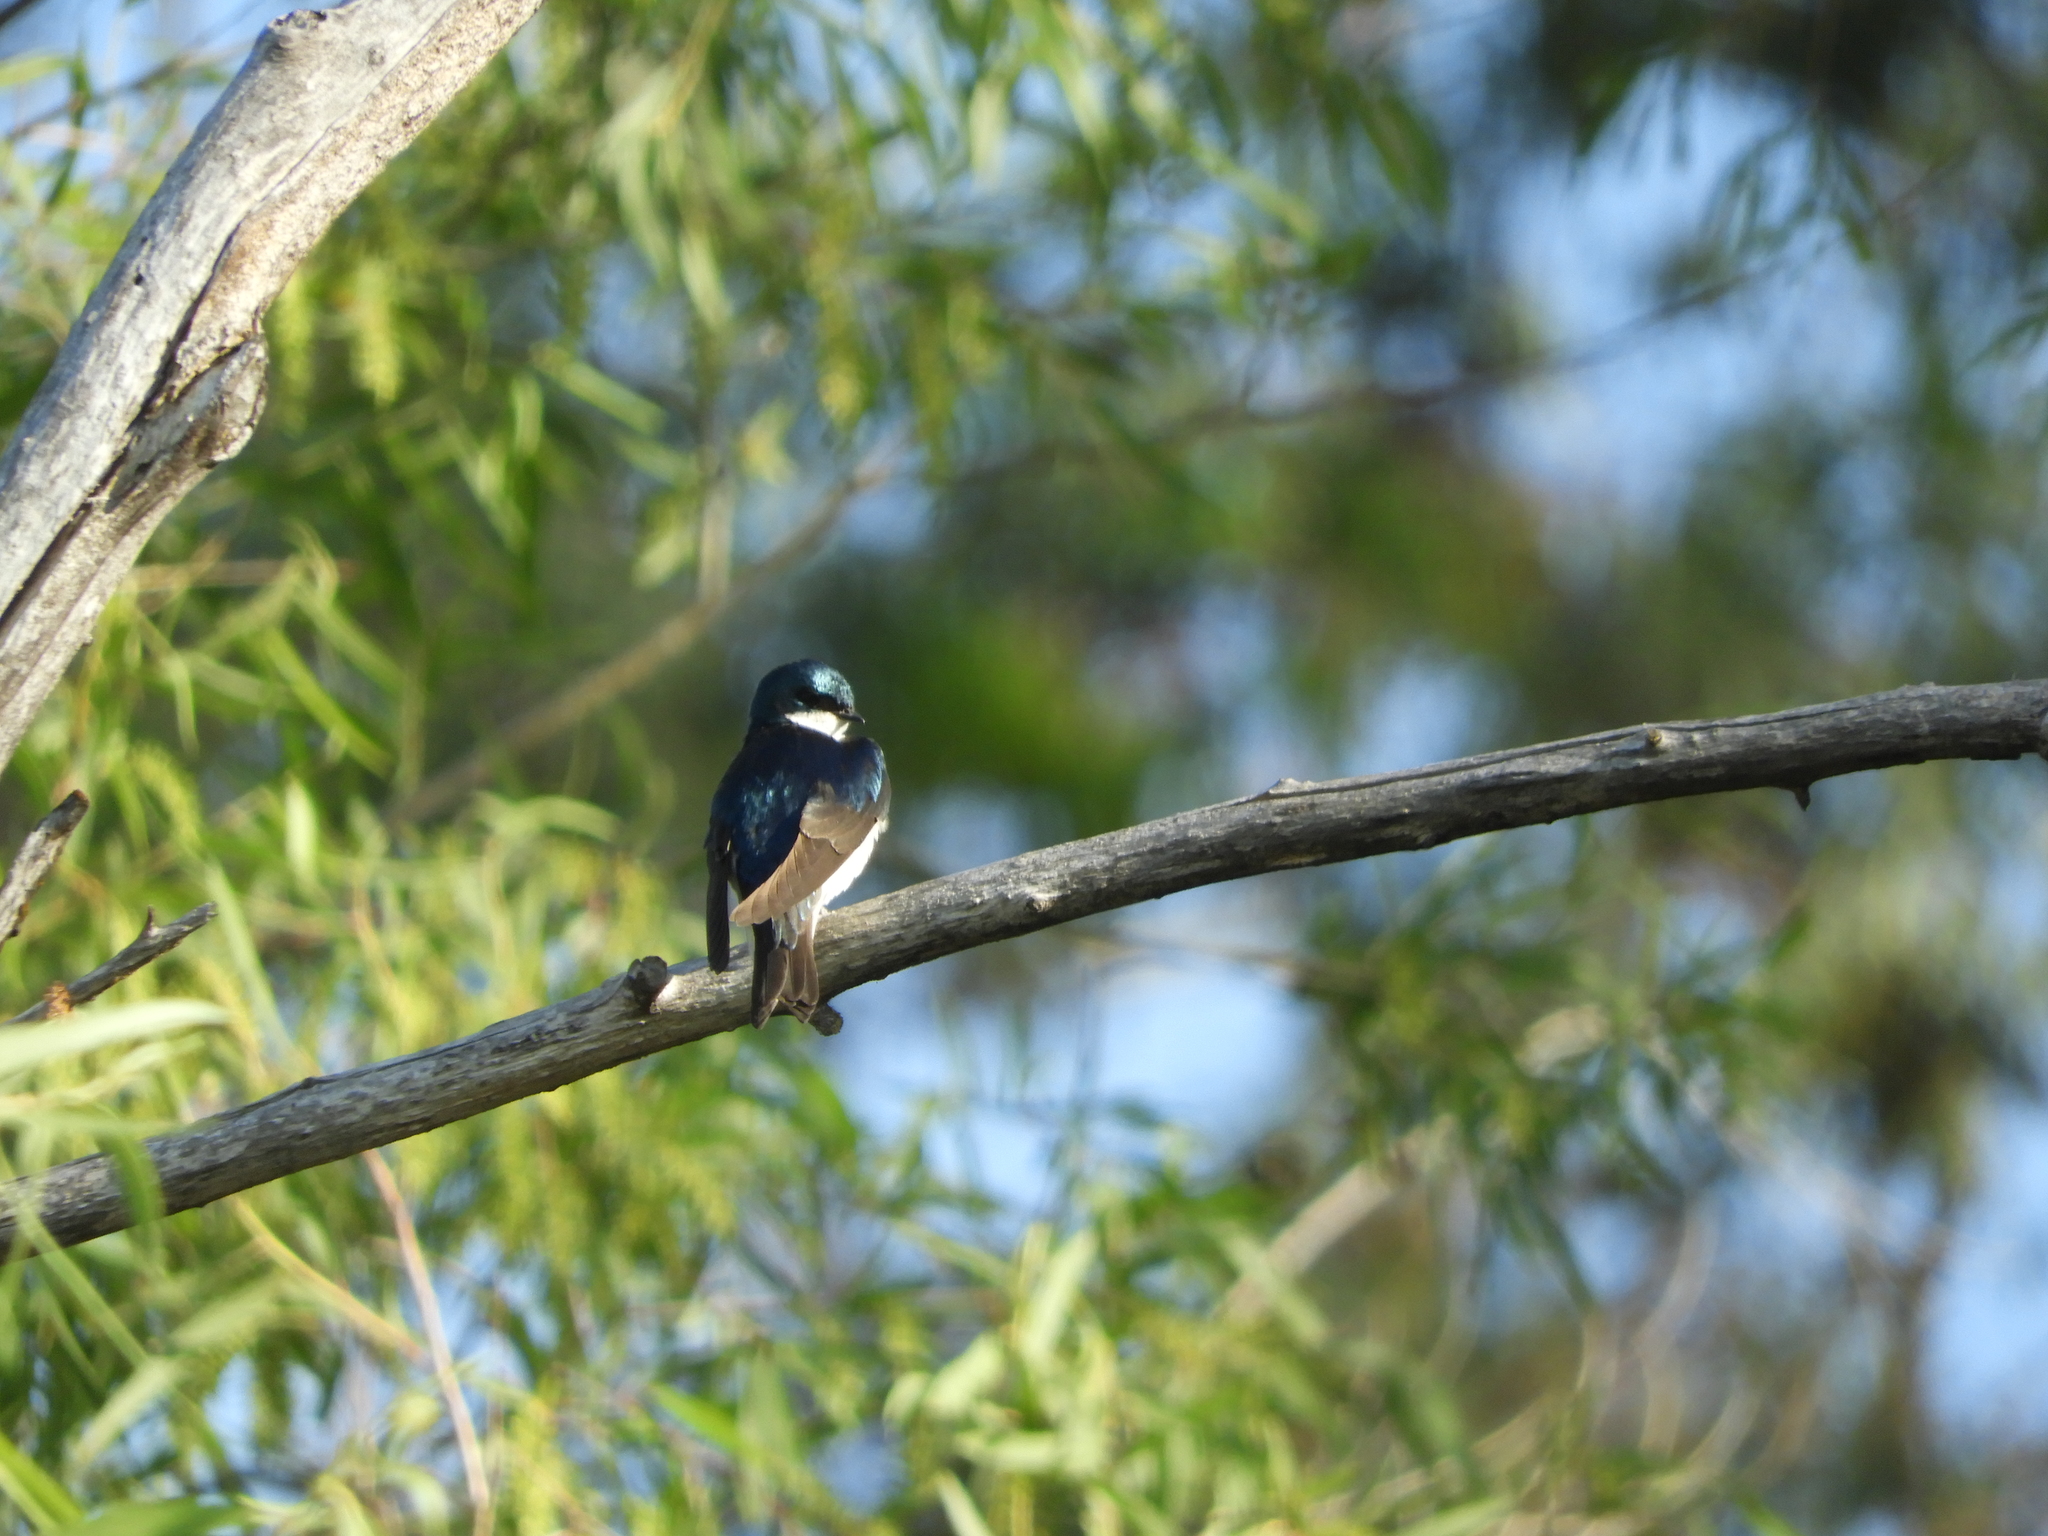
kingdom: Animalia
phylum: Chordata
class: Aves
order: Passeriformes
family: Hirundinidae
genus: Tachycineta
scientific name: Tachycineta bicolor
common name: Tree swallow
